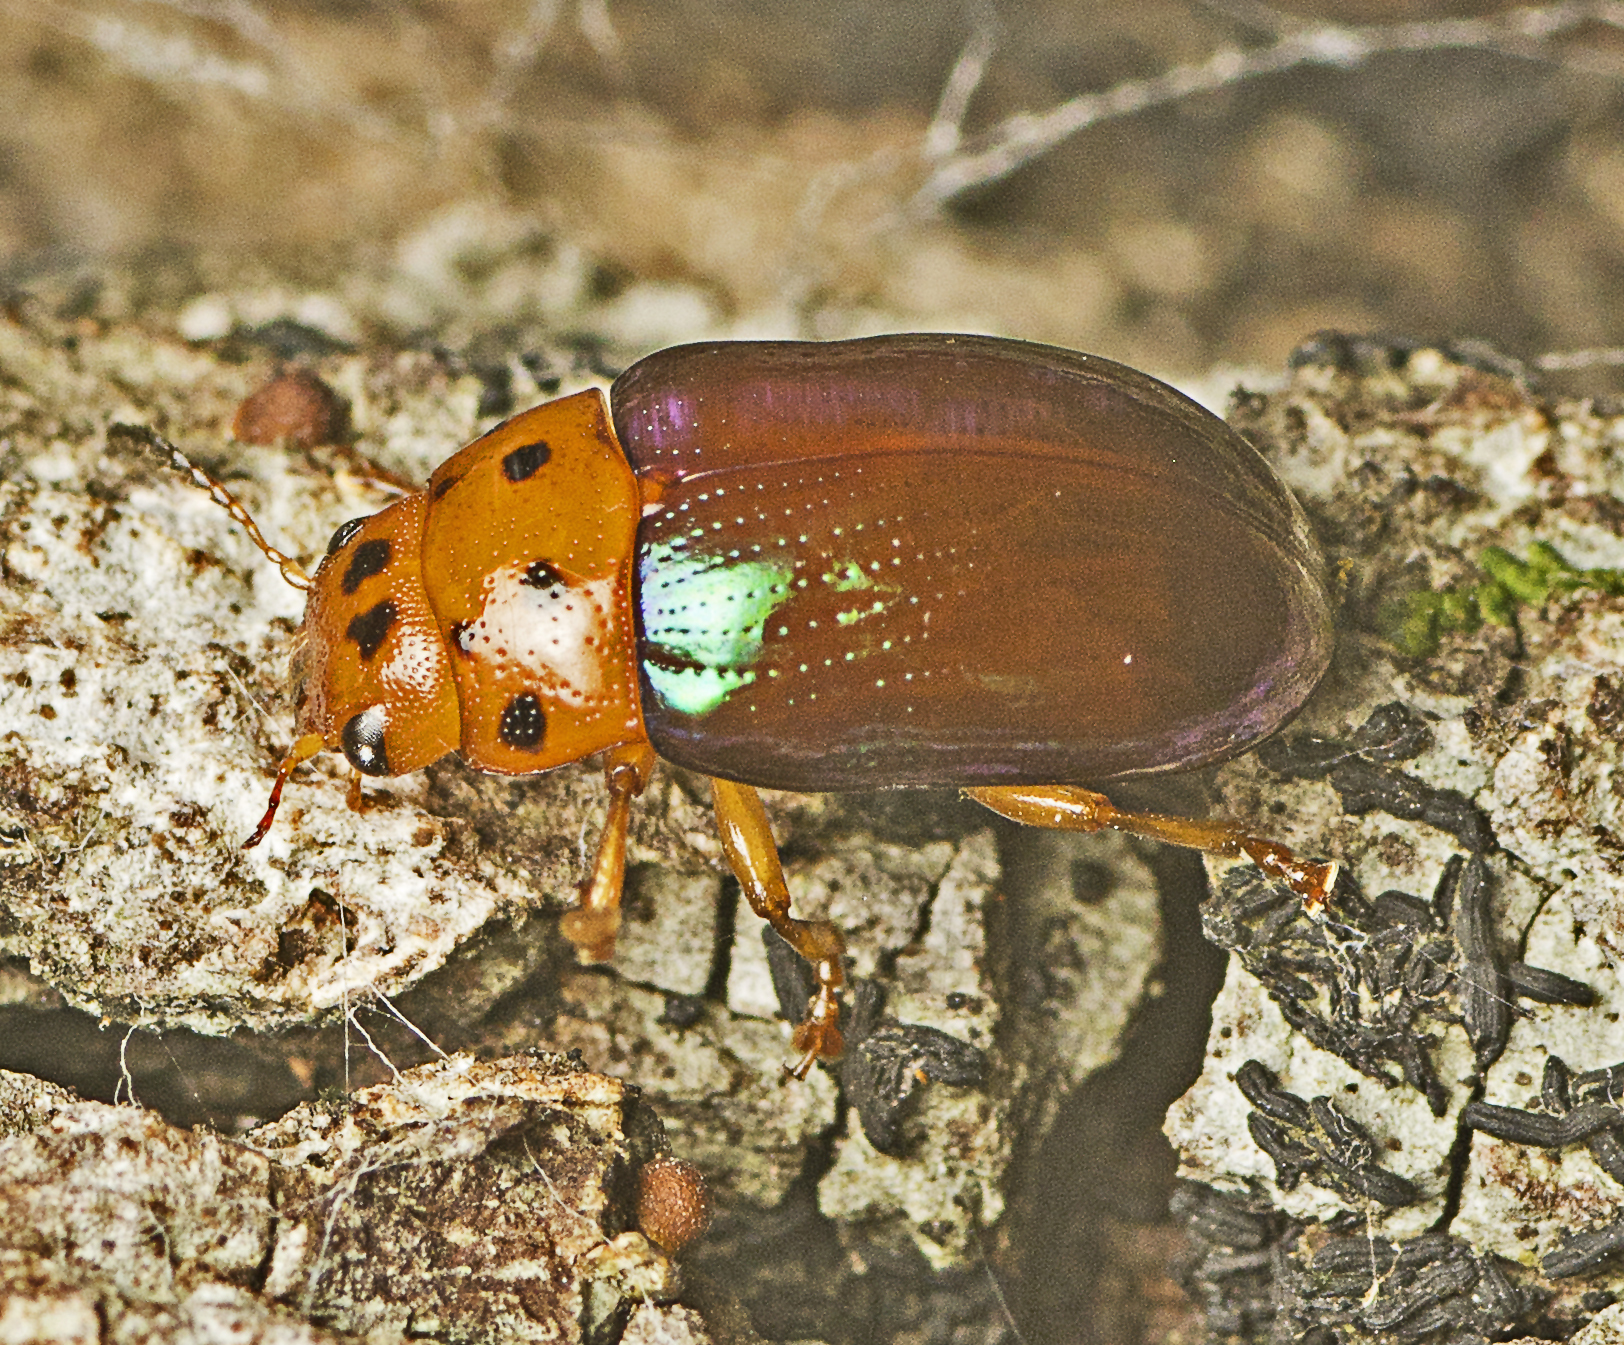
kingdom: Animalia
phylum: Arthropoda
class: Insecta
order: Coleoptera
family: Chrysomelidae
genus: Platymela
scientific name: Platymela
